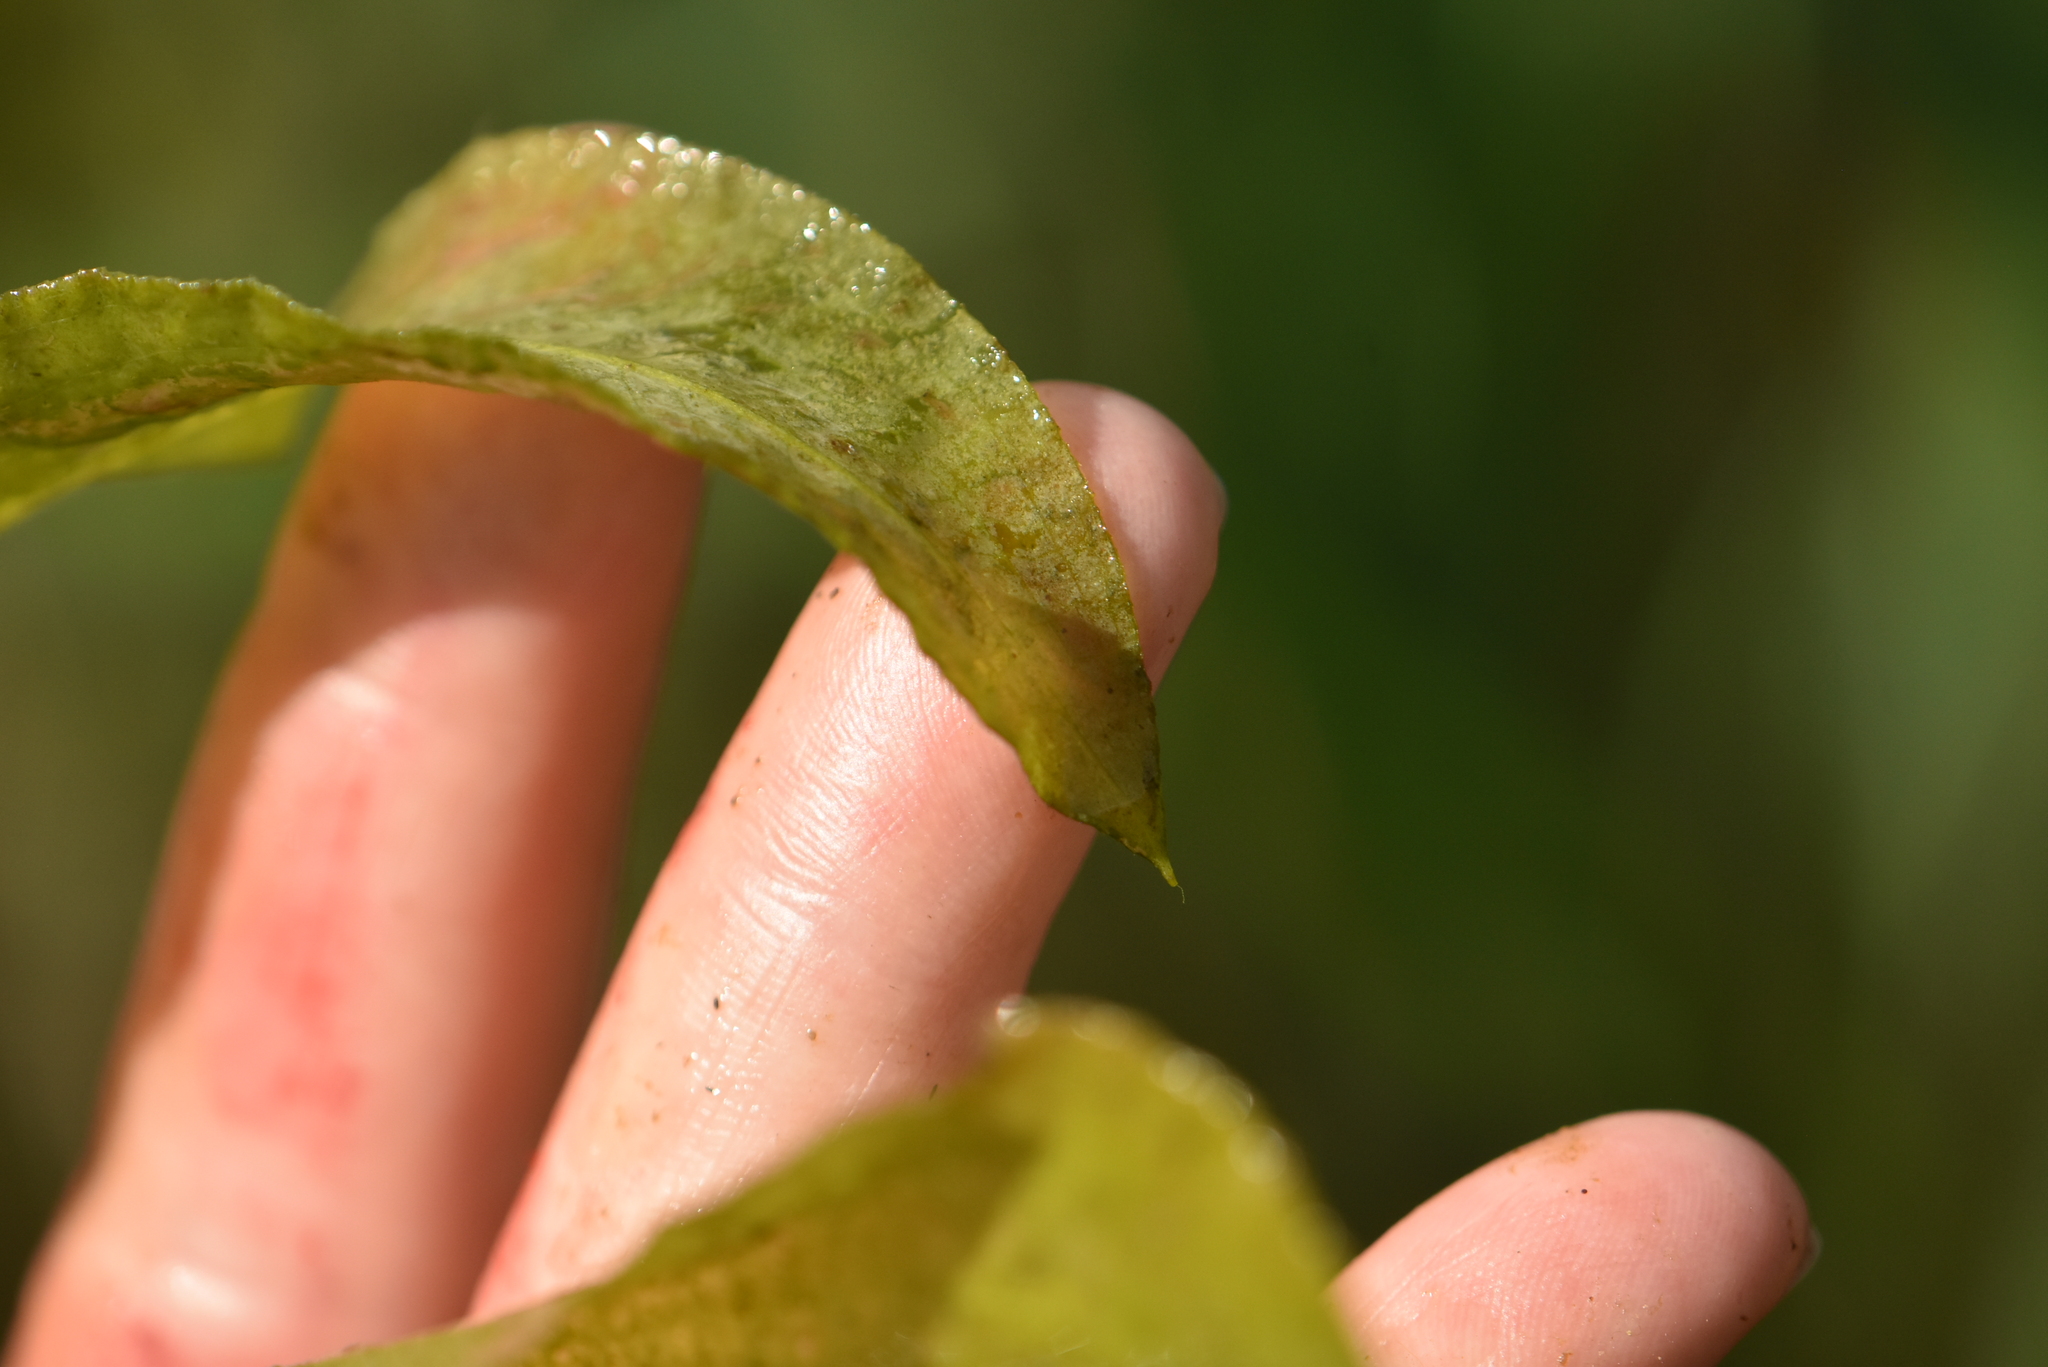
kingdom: Plantae
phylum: Tracheophyta
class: Liliopsida
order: Alismatales
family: Potamogetonaceae
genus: Potamogeton
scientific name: Potamogeton lucens
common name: Shining pondweed
